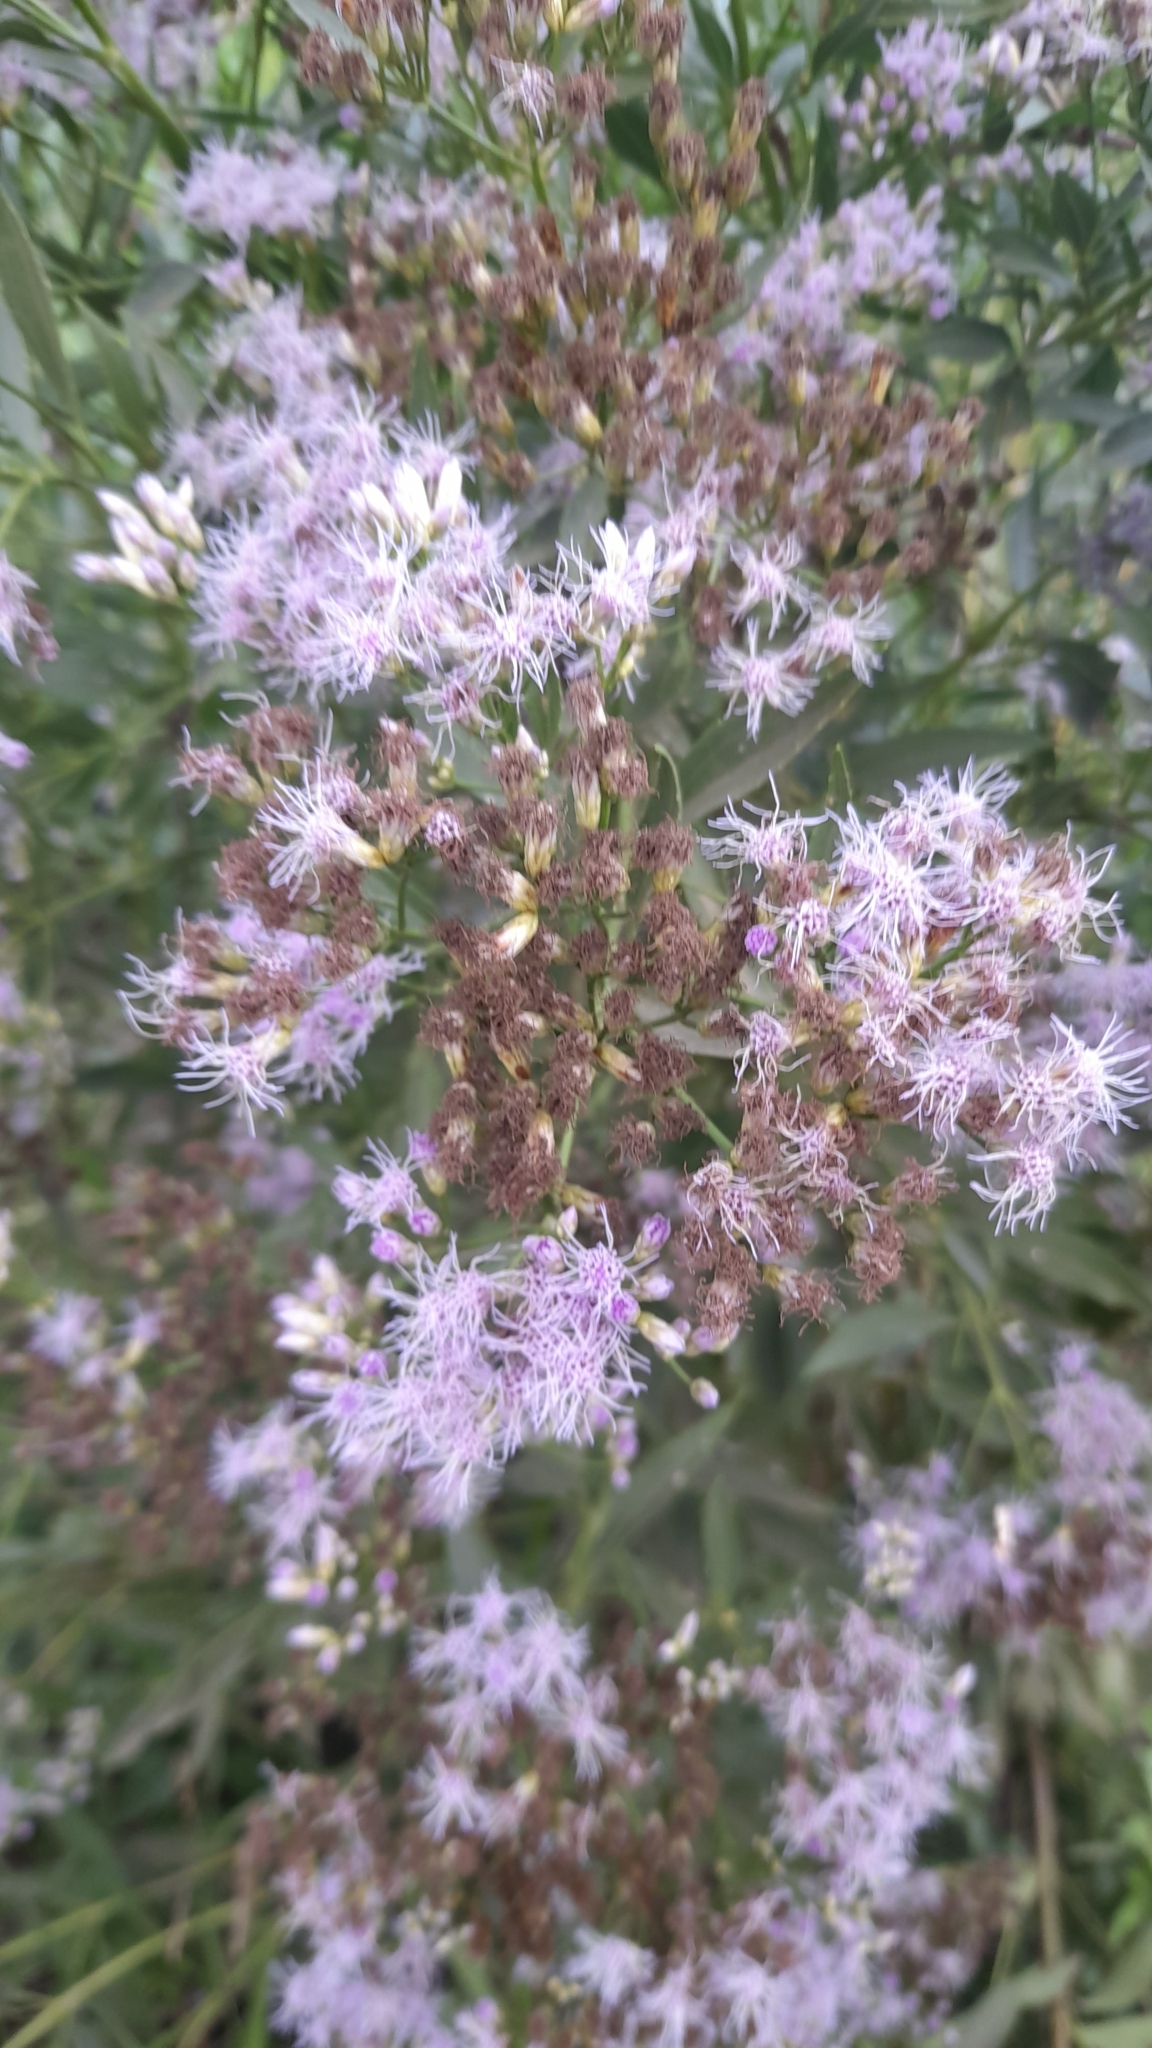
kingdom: Plantae
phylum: Tracheophyta
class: Magnoliopsida
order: Asterales
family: Asteraceae
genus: Chromolaena
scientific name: Chromolaena laevigata
